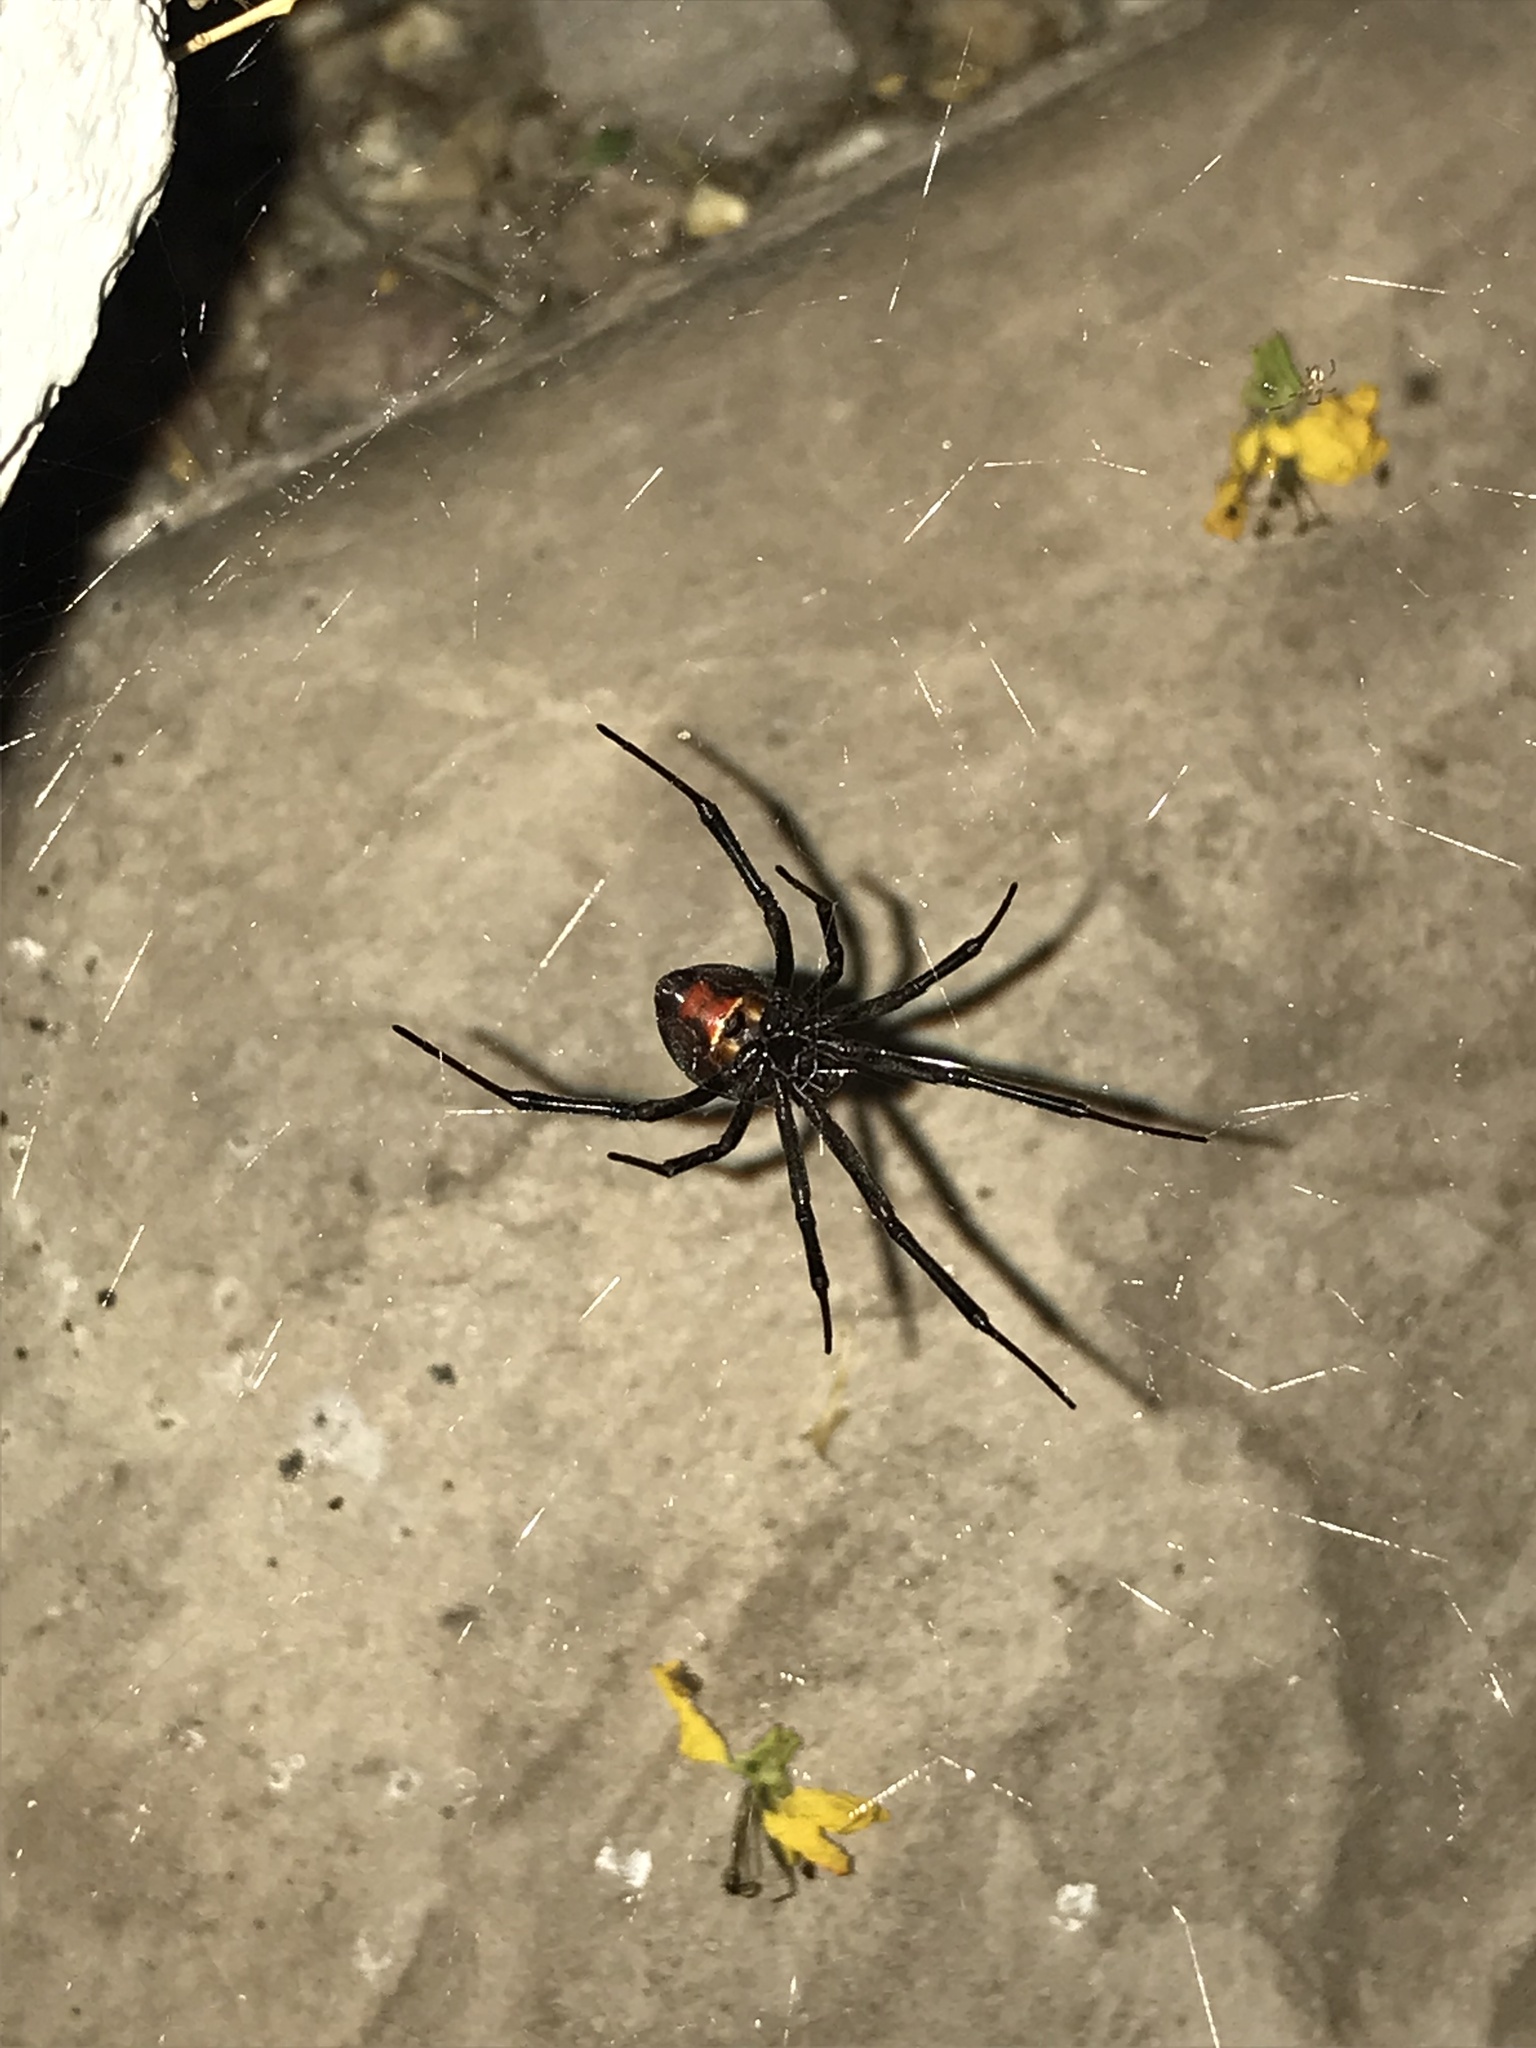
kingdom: Animalia
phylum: Arthropoda
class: Arachnida
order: Araneae
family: Theridiidae
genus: Latrodectus
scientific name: Latrodectus hesperus
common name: Western black widow
